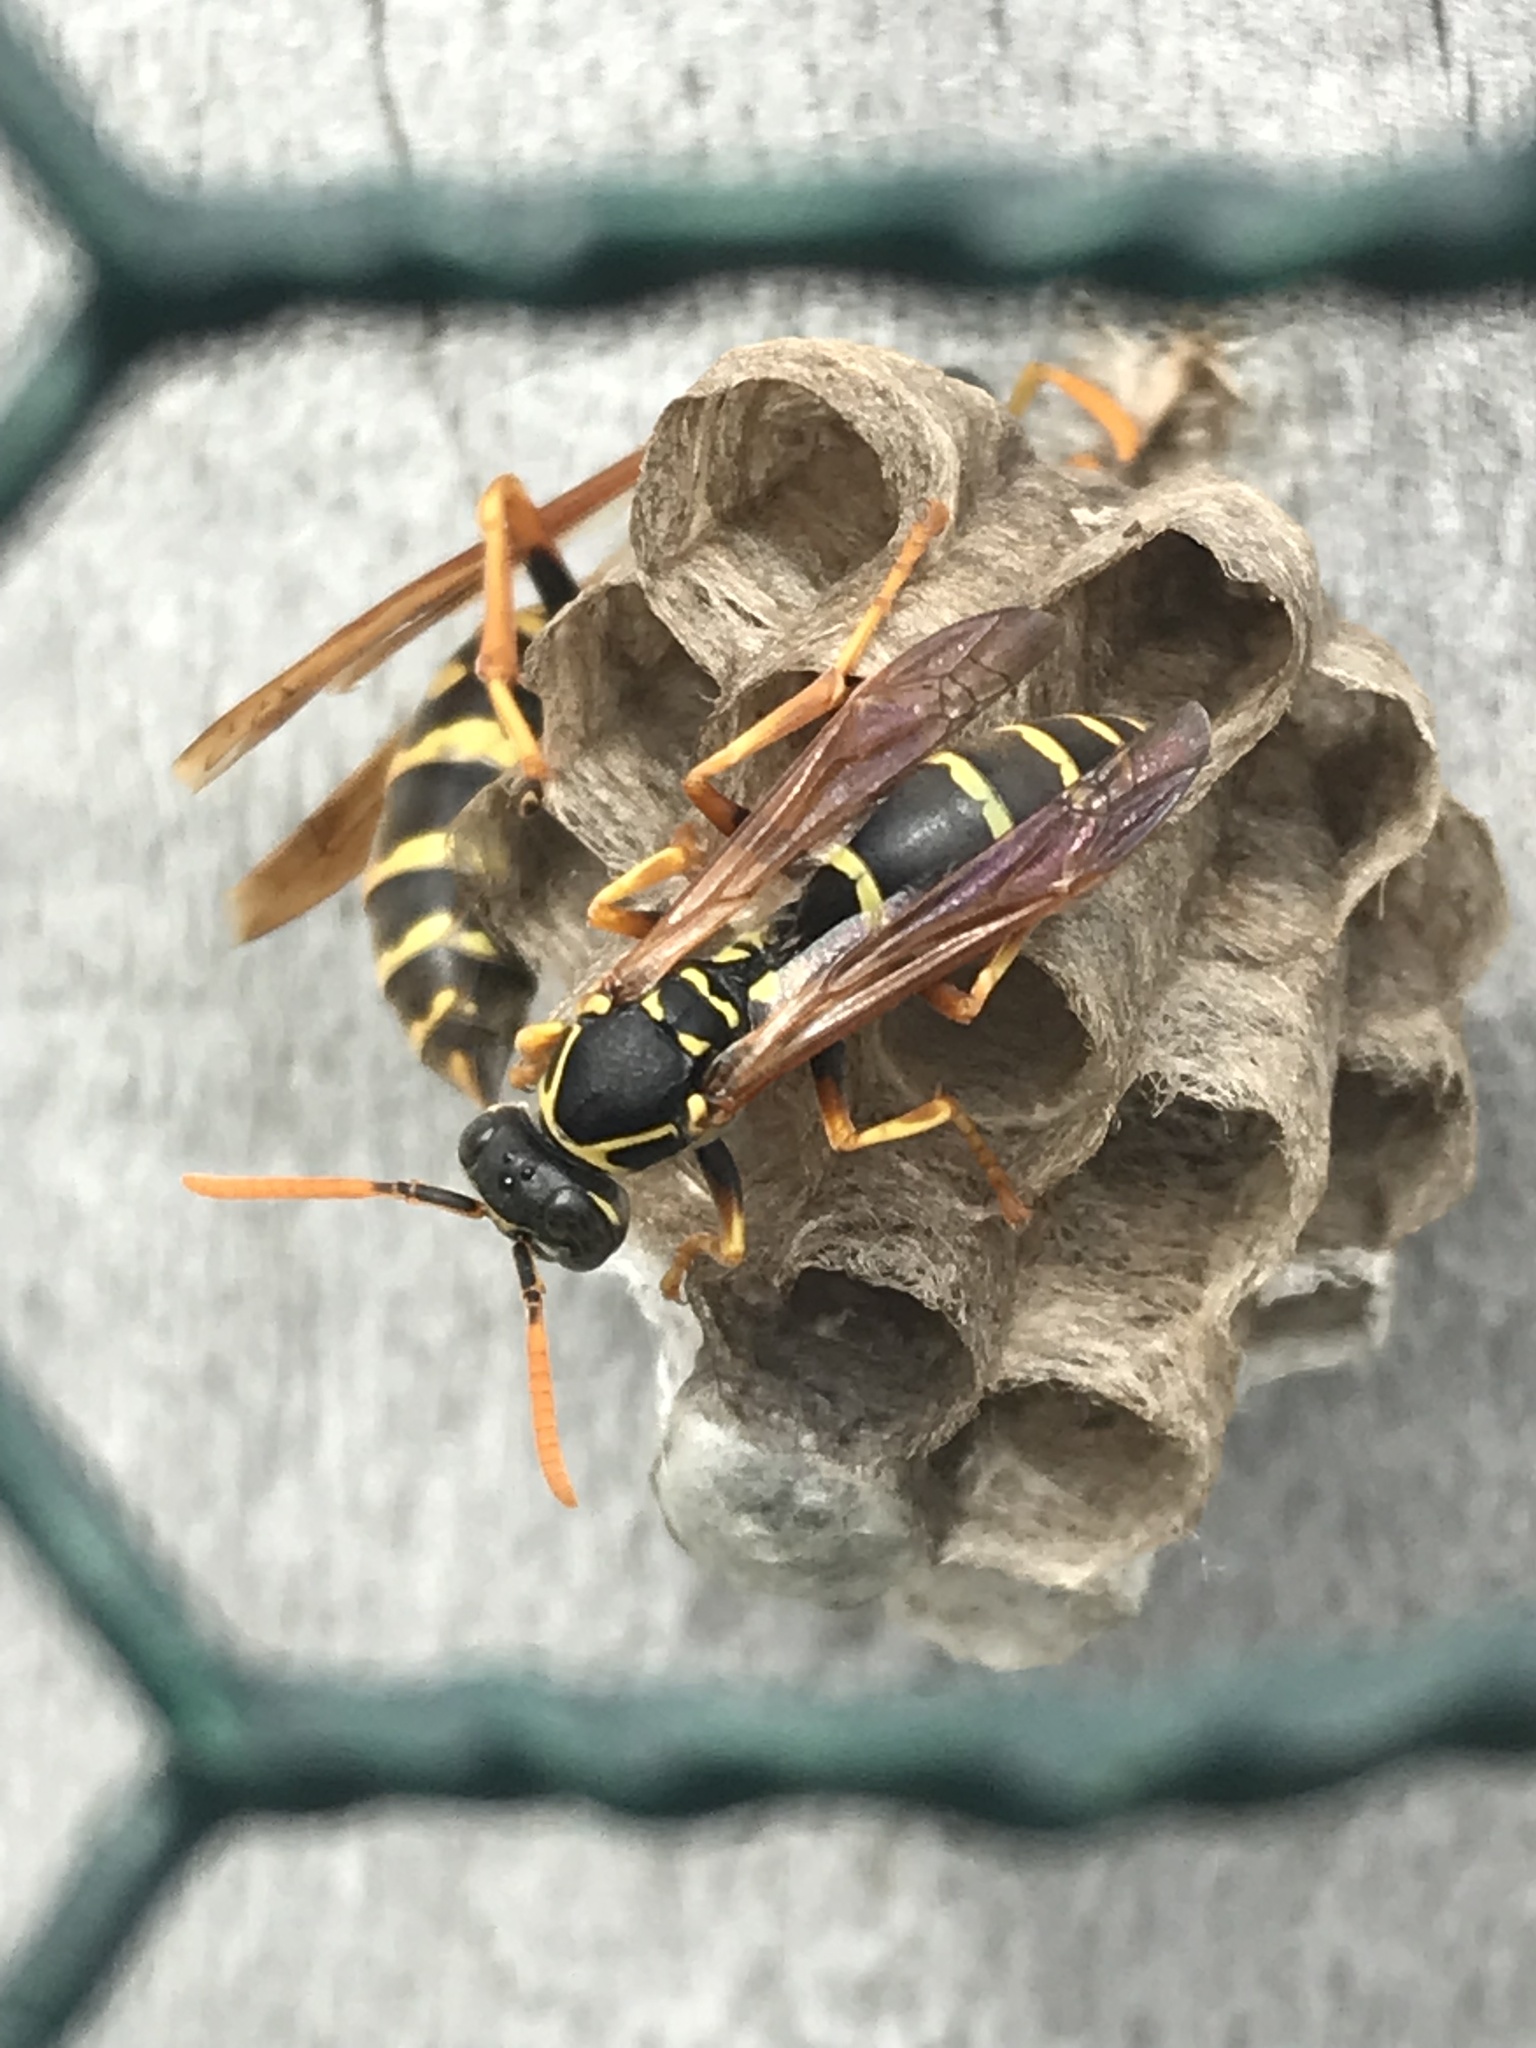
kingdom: Animalia
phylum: Arthropoda
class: Insecta
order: Hymenoptera
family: Eumenidae
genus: Polistes
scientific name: Polistes chinensis
